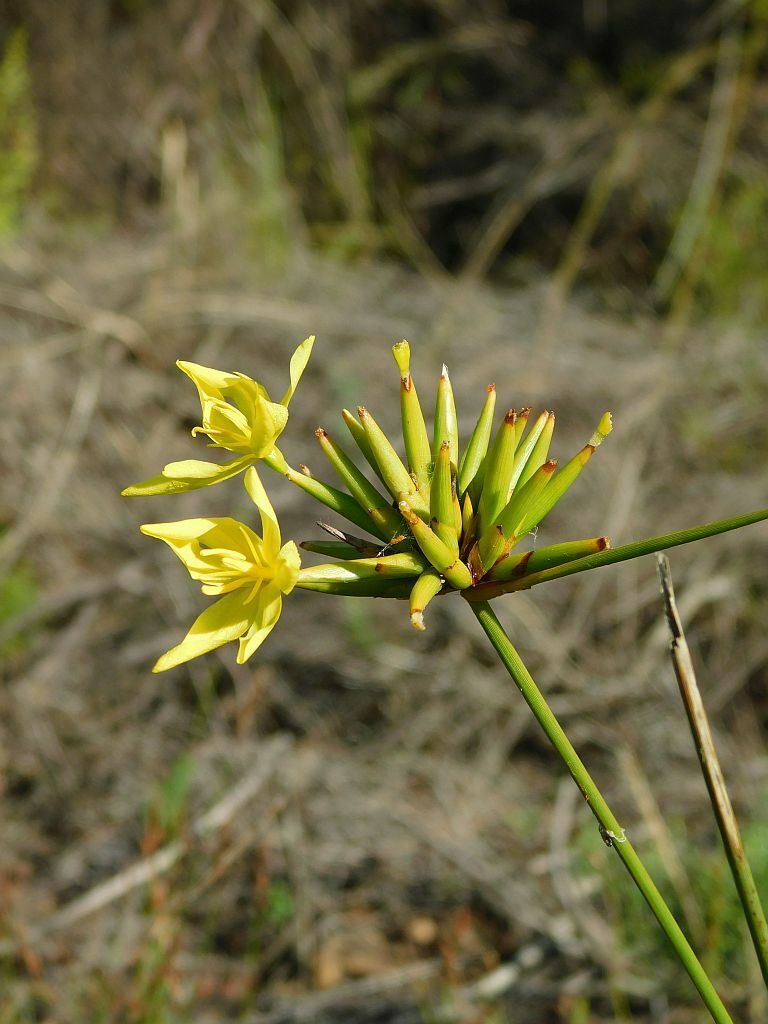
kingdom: Plantae
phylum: Tracheophyta
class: Liliopsida
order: Asparagales
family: Iridaceae
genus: Bobartia
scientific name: Bobartia indica
